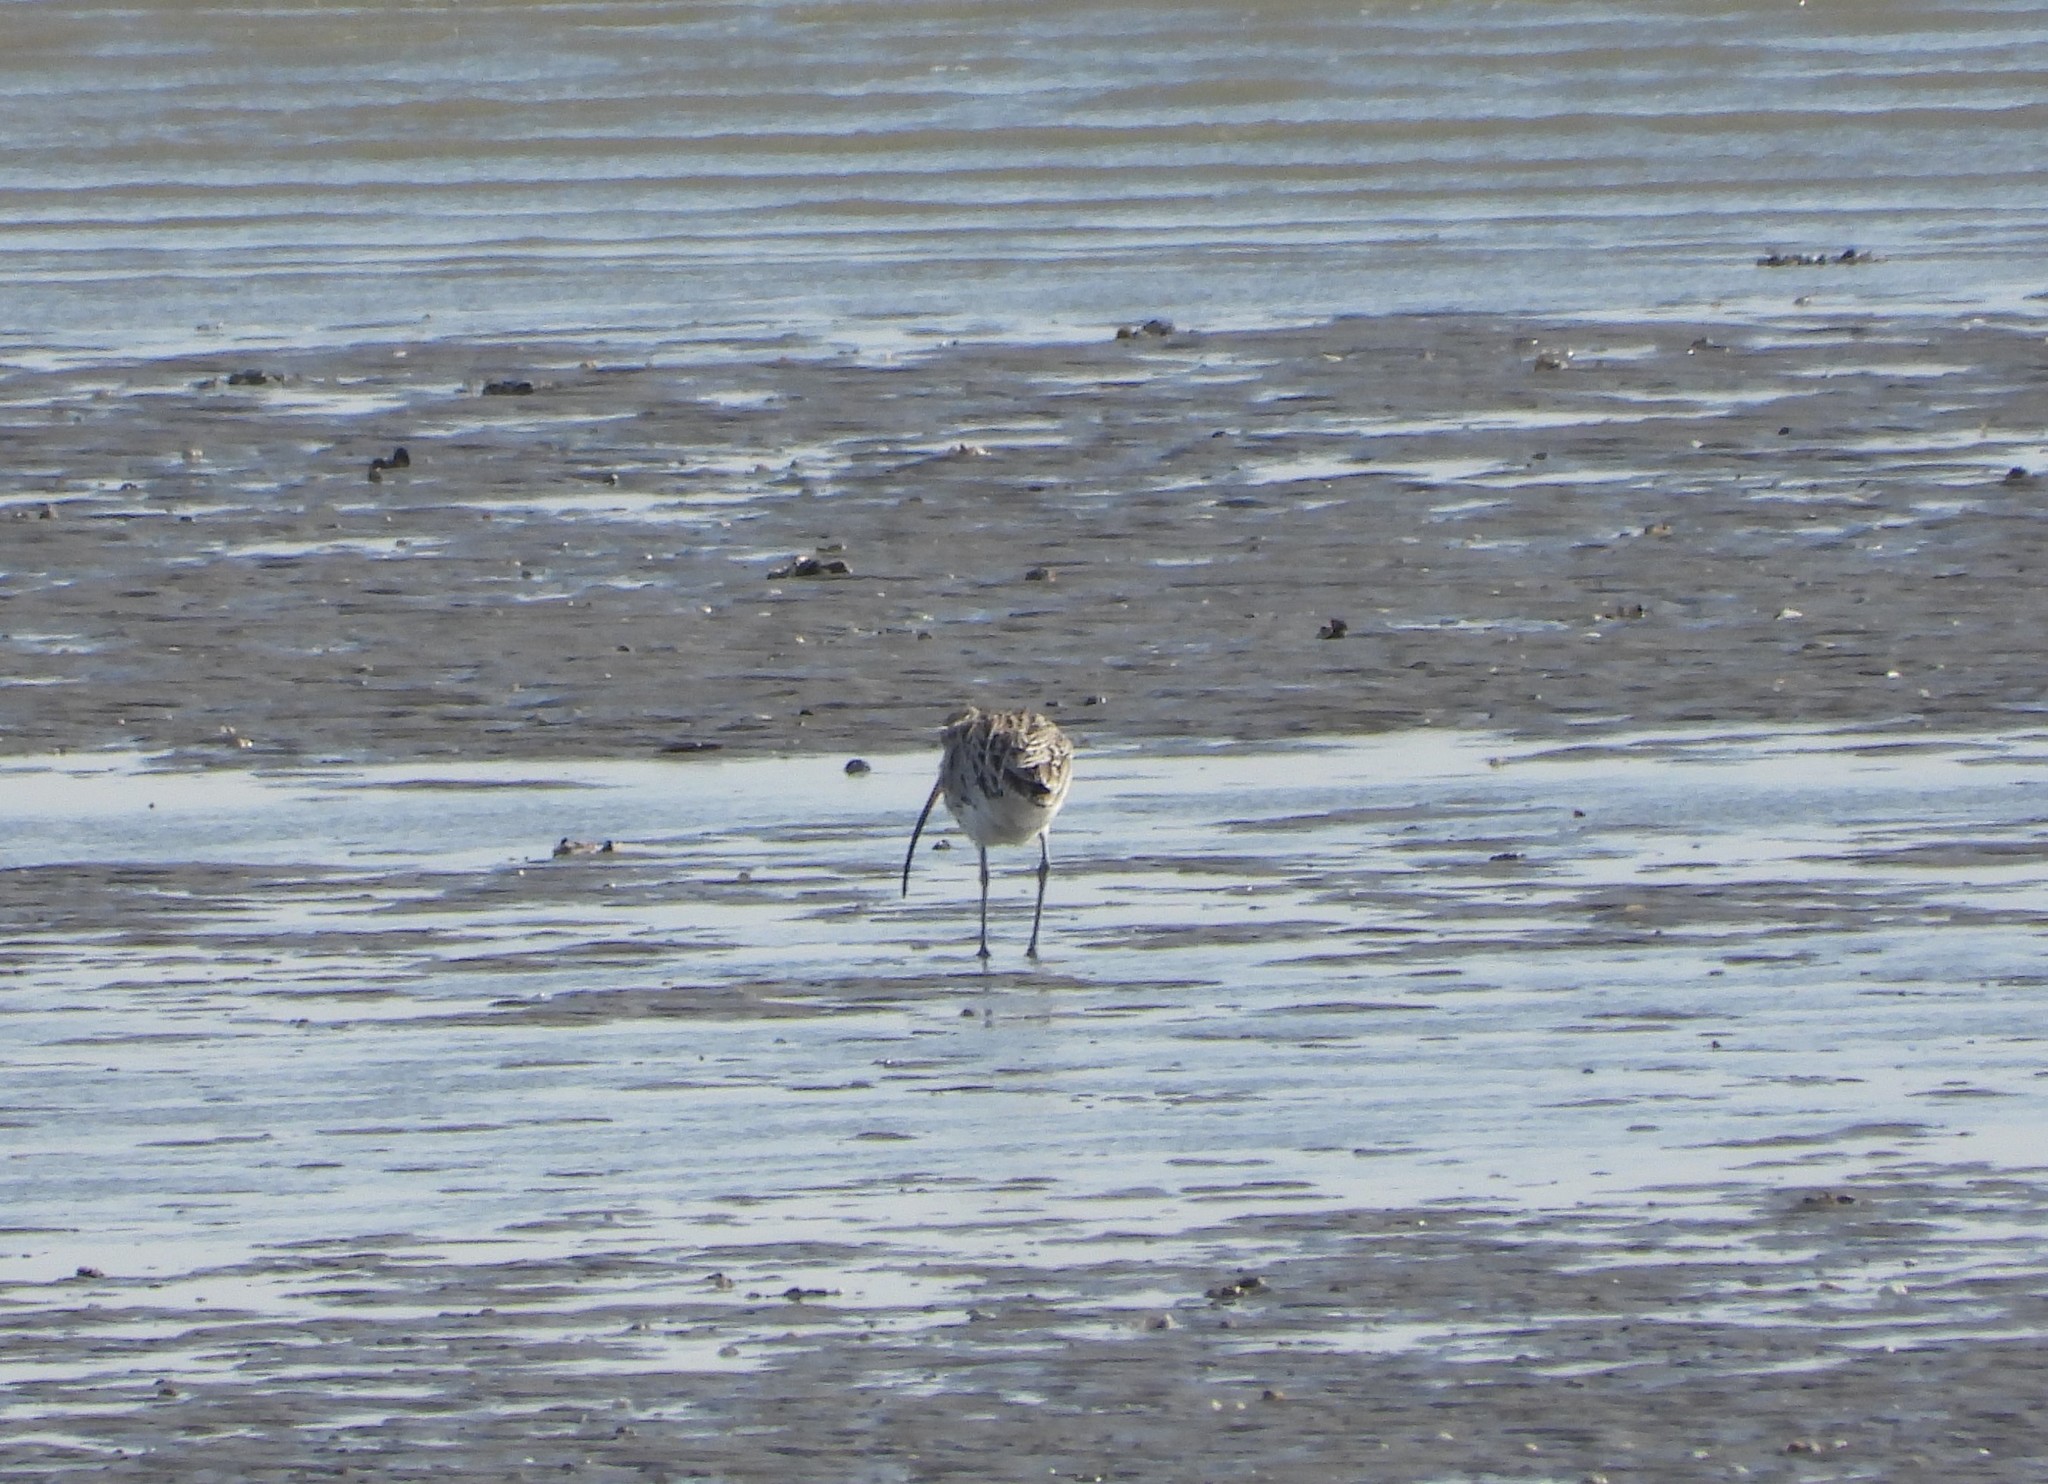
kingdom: Animalia
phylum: Chordata
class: Aves
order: Charadriiformes
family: Scolopacidae
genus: Numenius
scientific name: Numenius arquata
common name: Eurasian curlew
